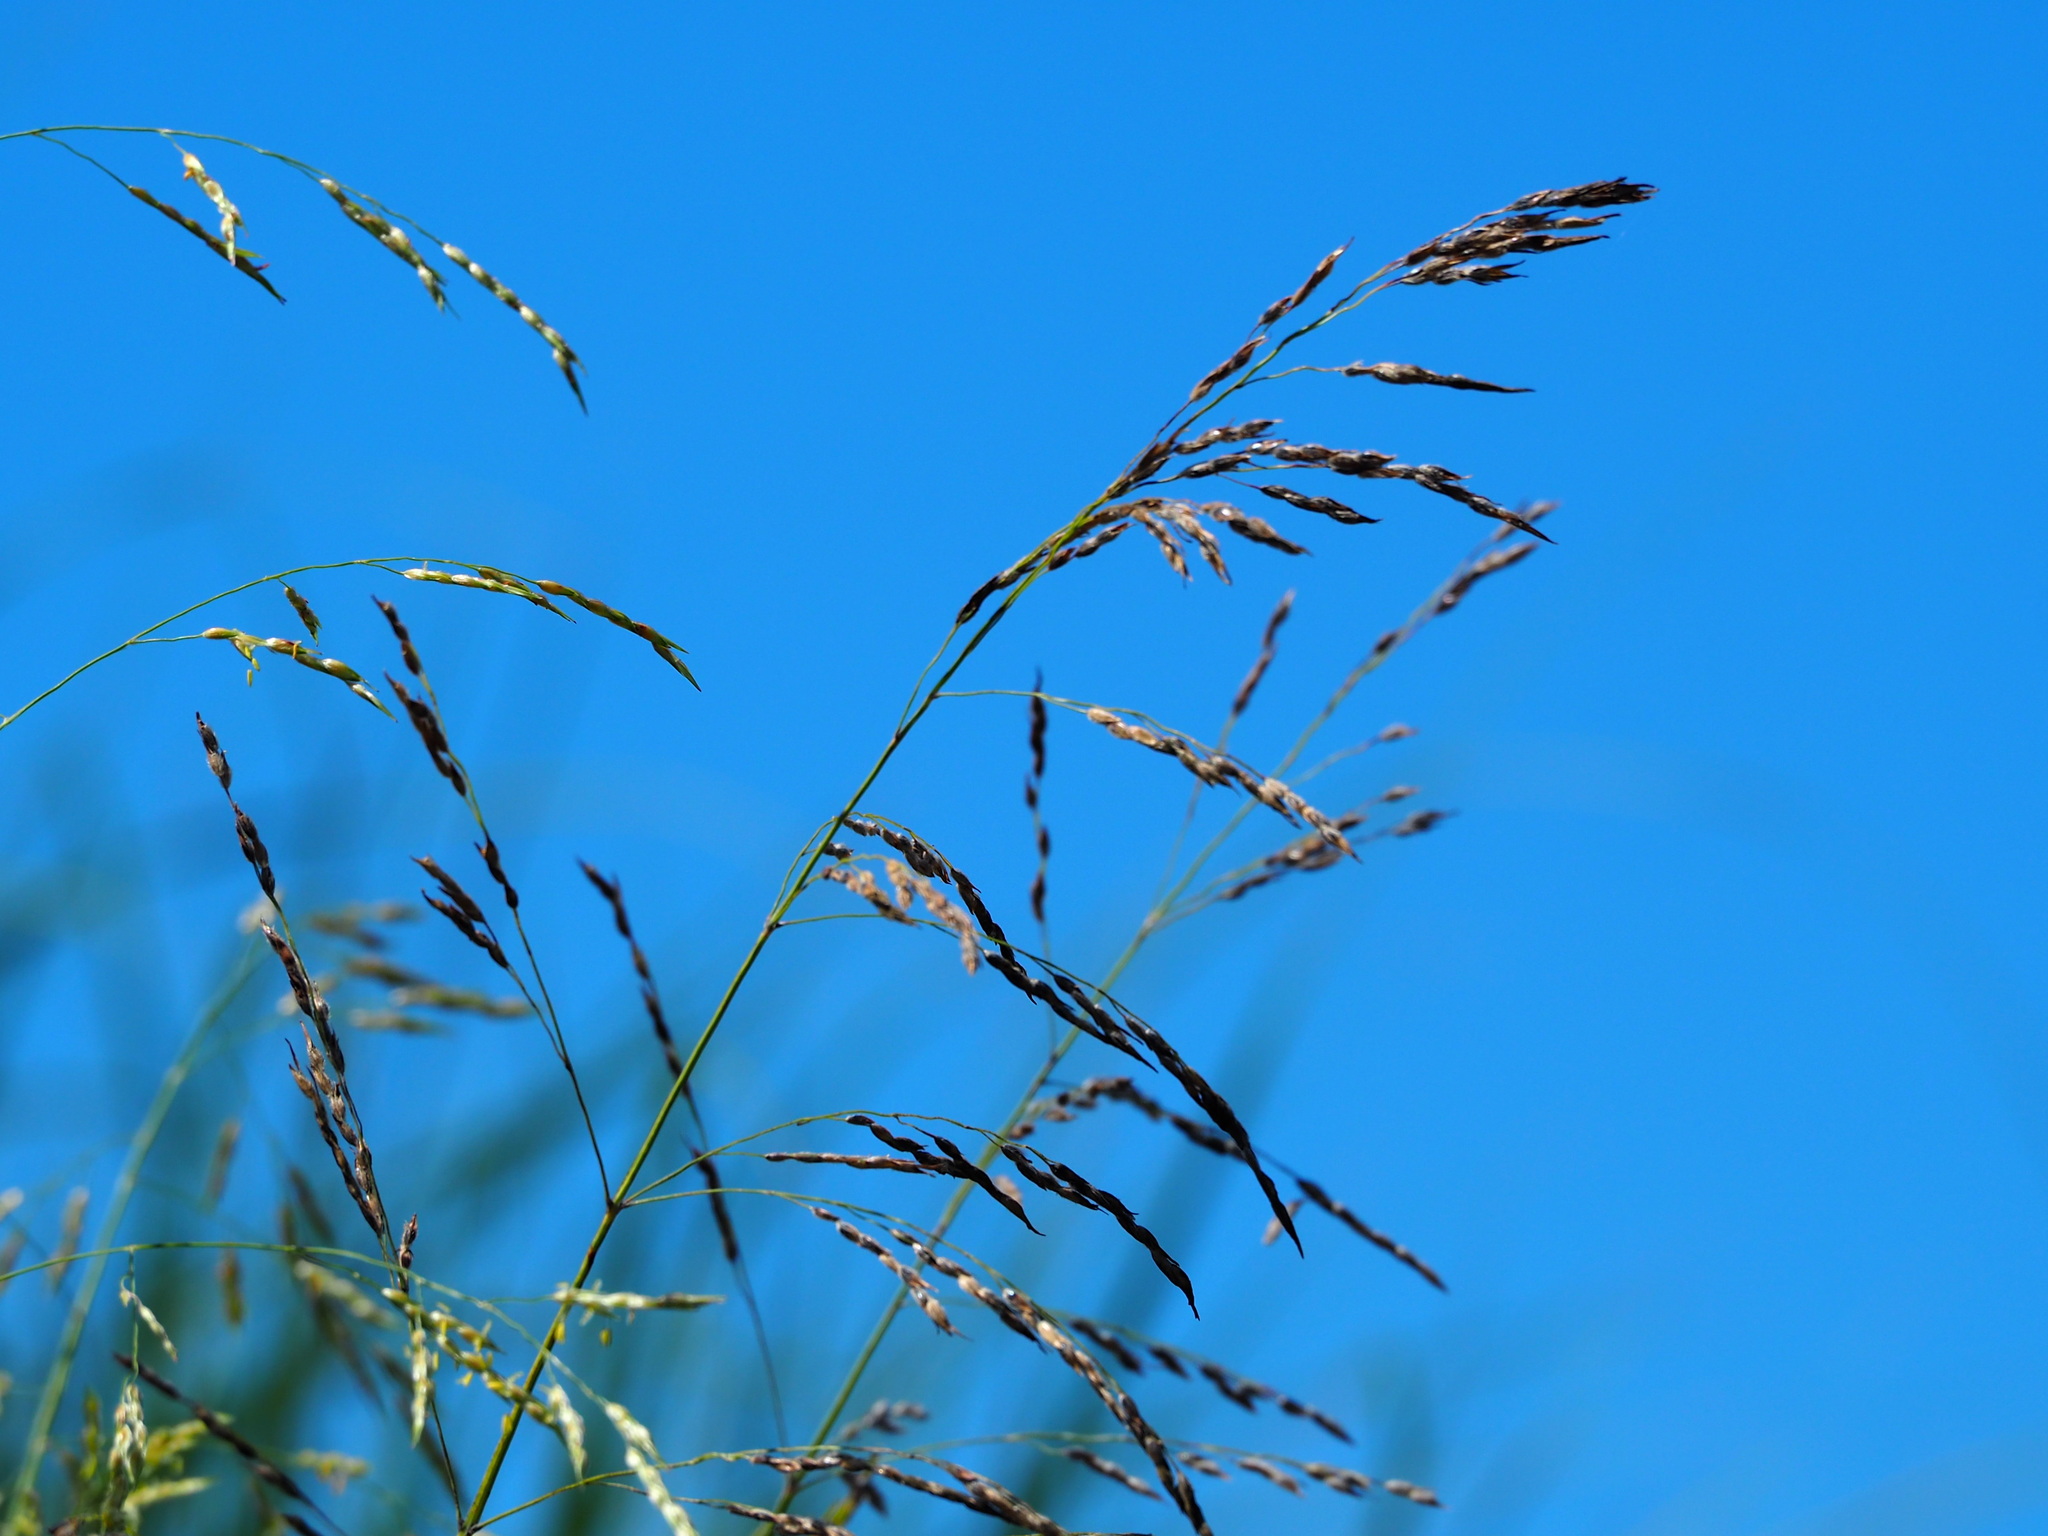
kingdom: Plantae
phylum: Tracheophyta
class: Liliopsida
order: Poales
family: Poaceae
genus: Sorghum
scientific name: Sorghum arundinaceum
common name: Sorghum
